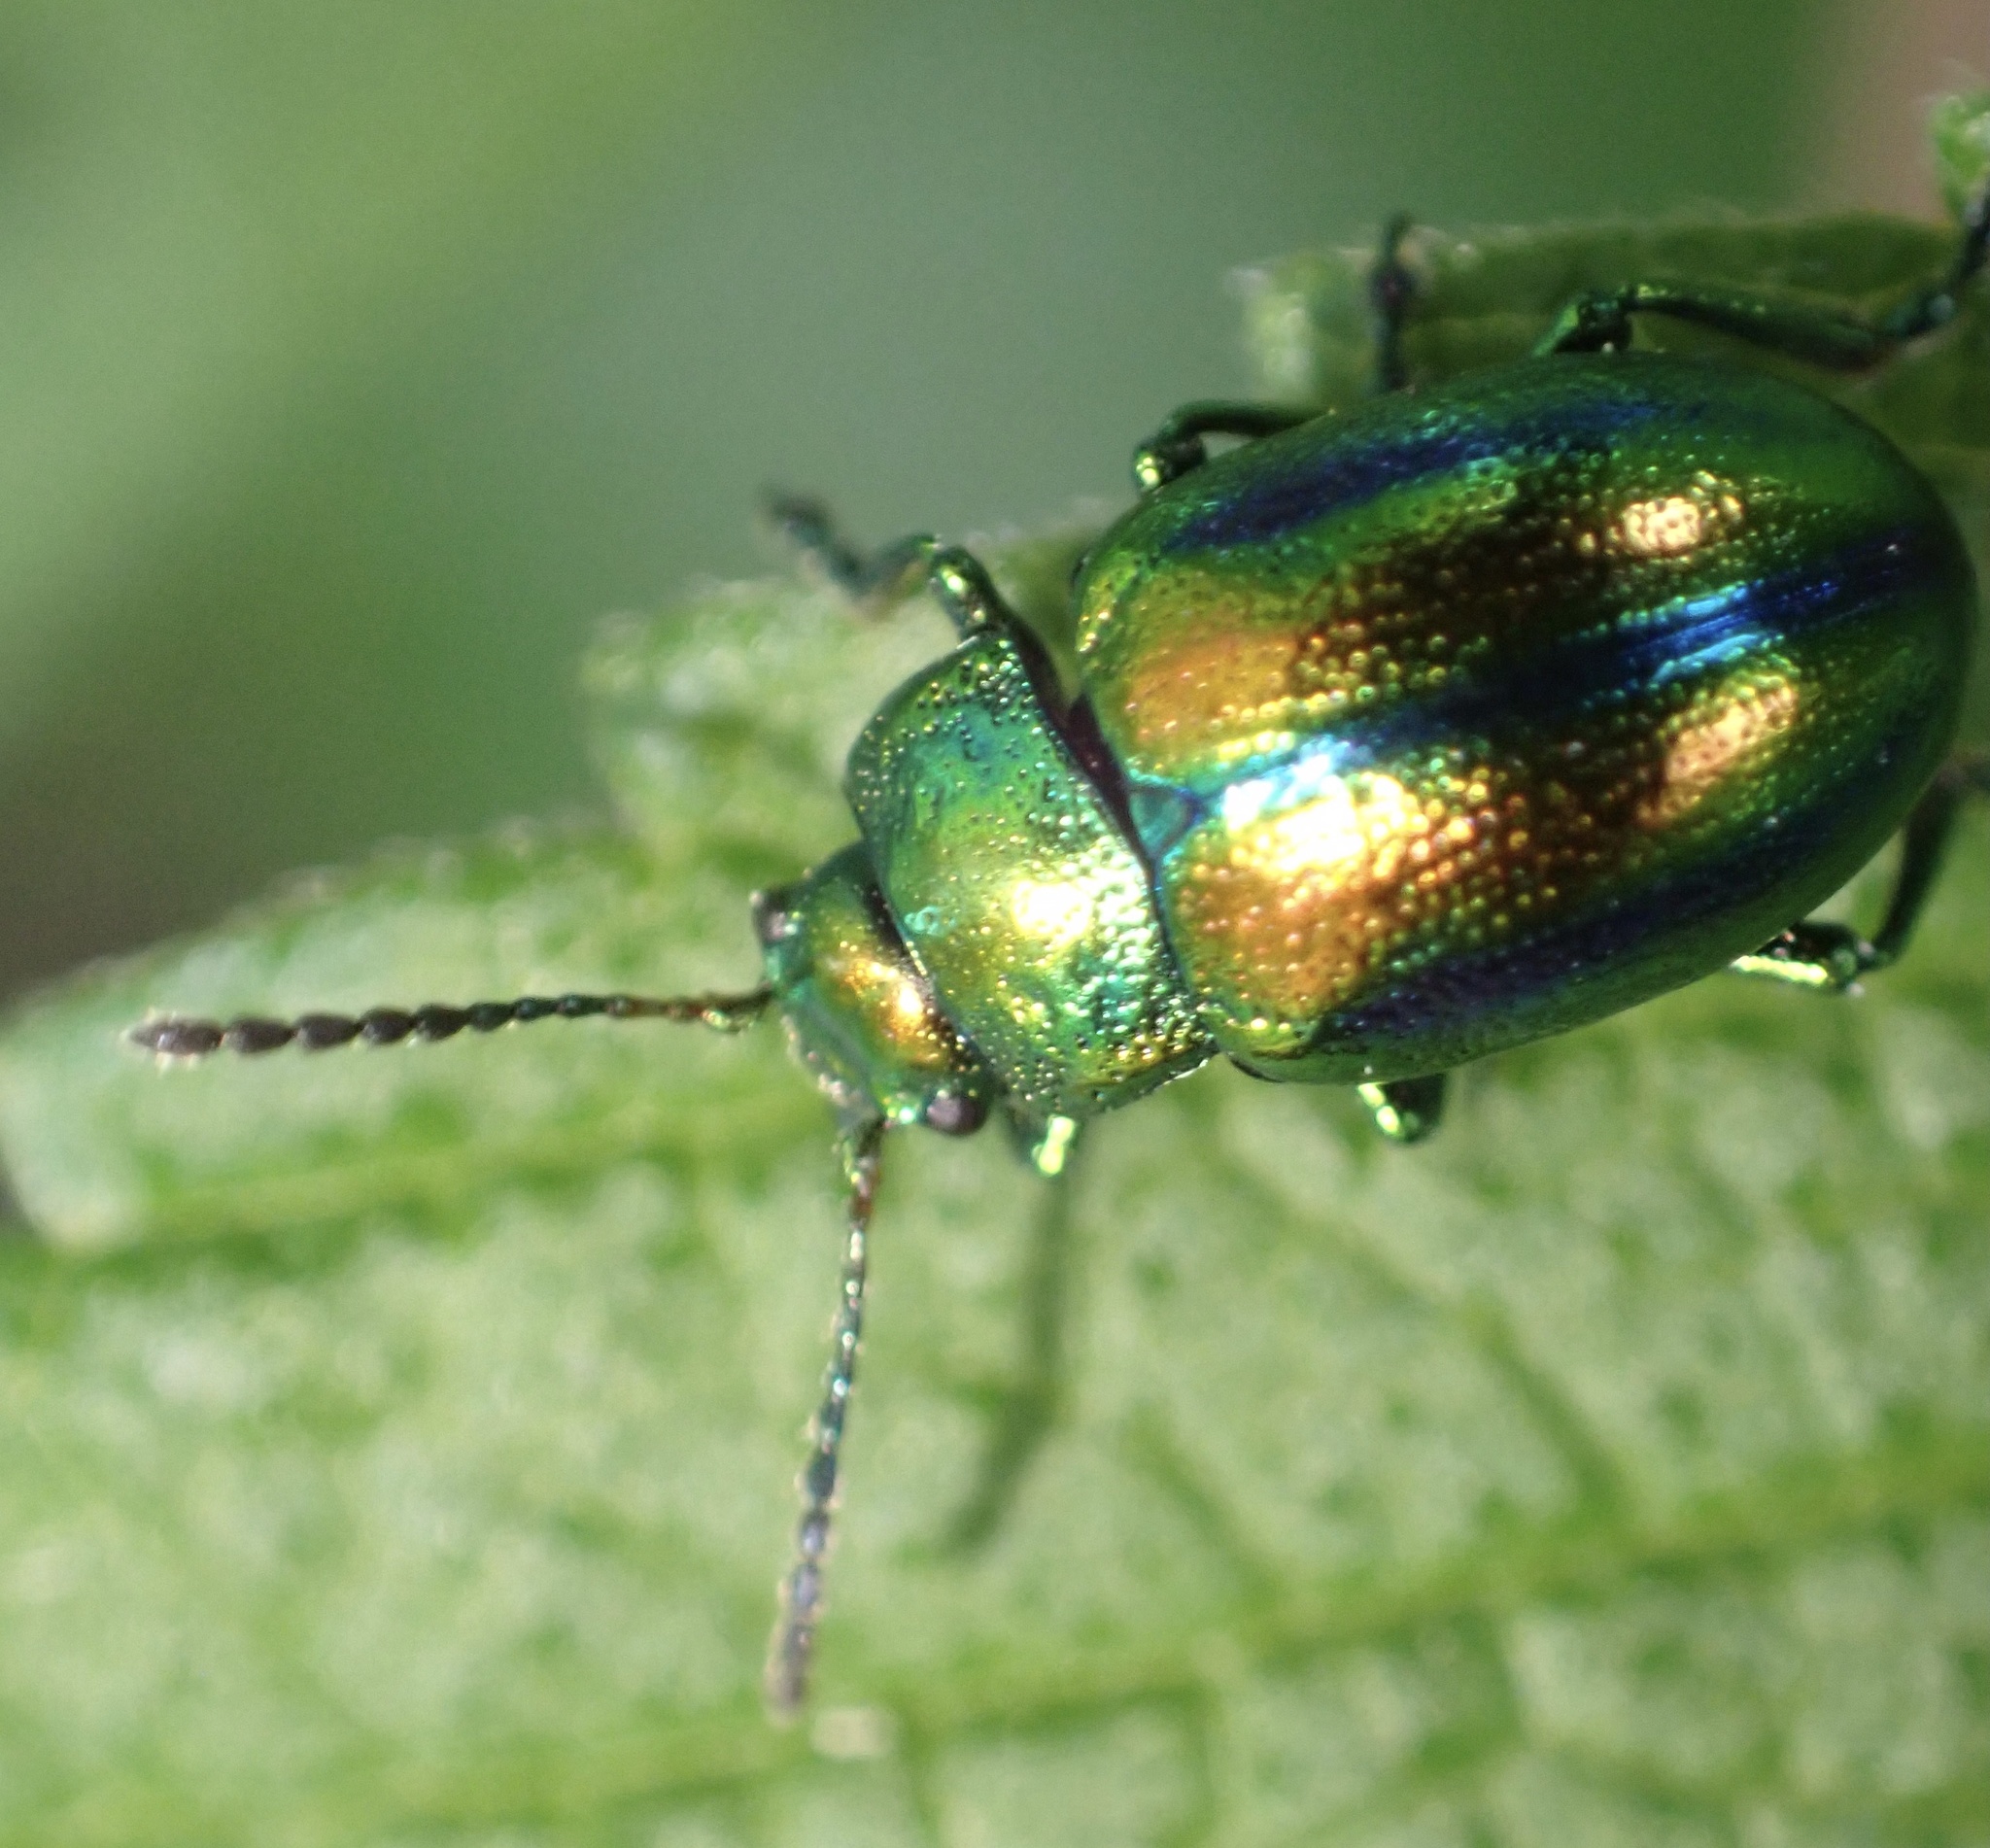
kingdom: Animalia
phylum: Arthropoda
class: Insecta
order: Coleoptera
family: Chrysomelidae
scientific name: Chrysomelidae
